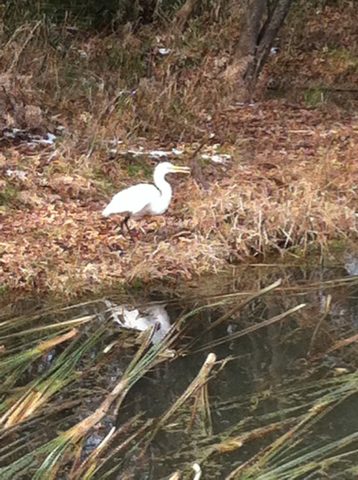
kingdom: Animalia
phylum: Chordata
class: Aves
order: Pelecaniformes
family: Ardeidae
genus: Ardea
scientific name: Ardea alba
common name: Great egret
